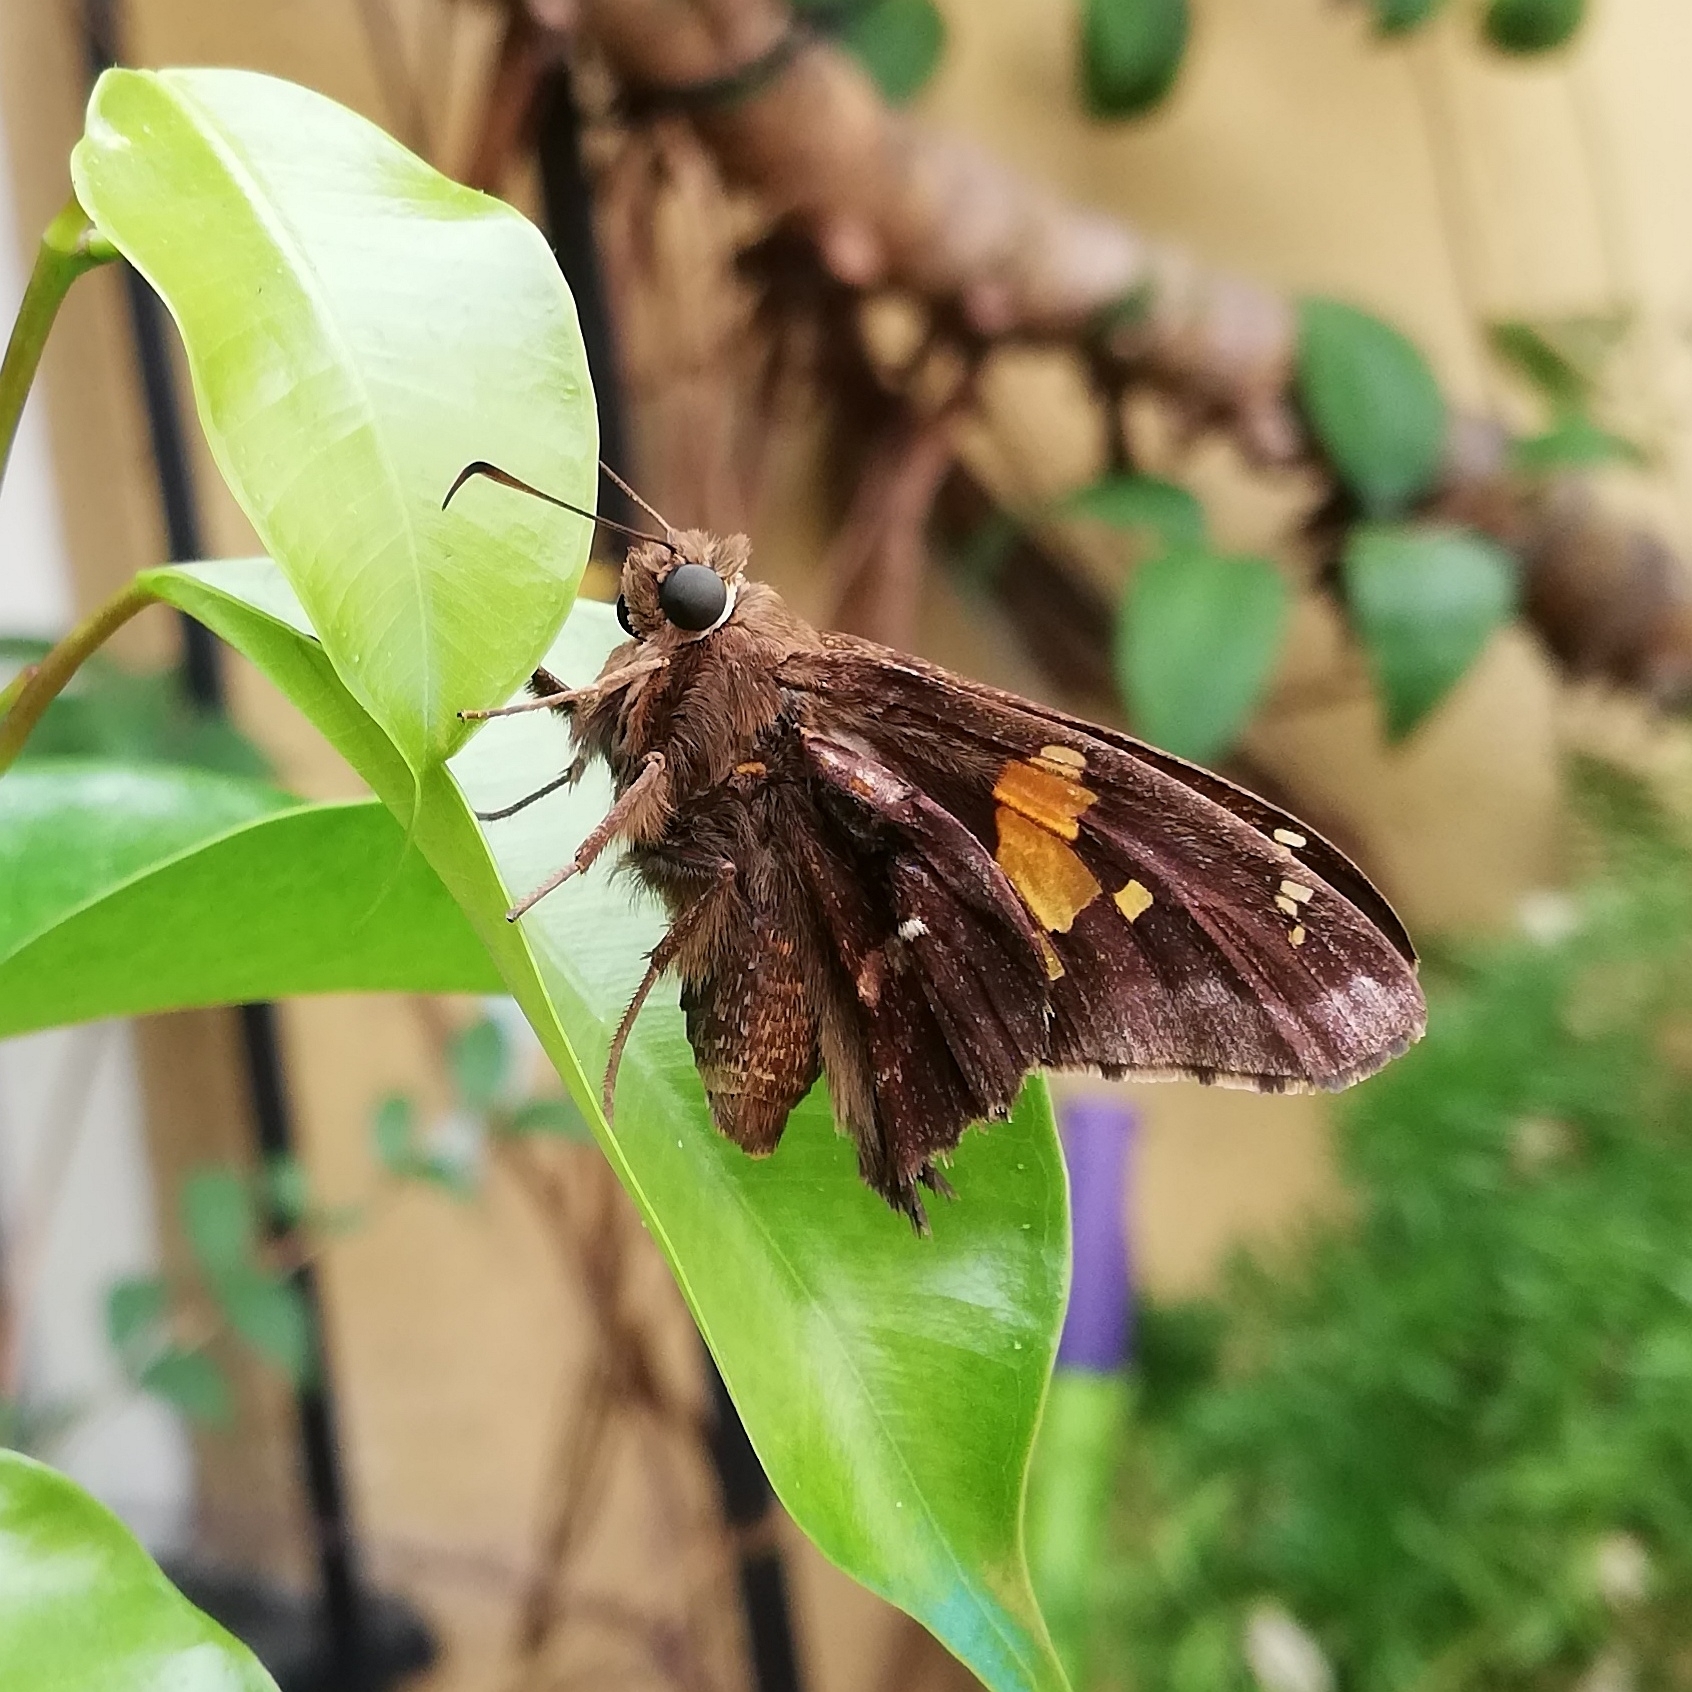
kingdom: Animalia
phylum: Arthropoda
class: Insecta
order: Lepidoptera
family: Hesperiidae
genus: Epargyreus
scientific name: Epargyreus tmolis
